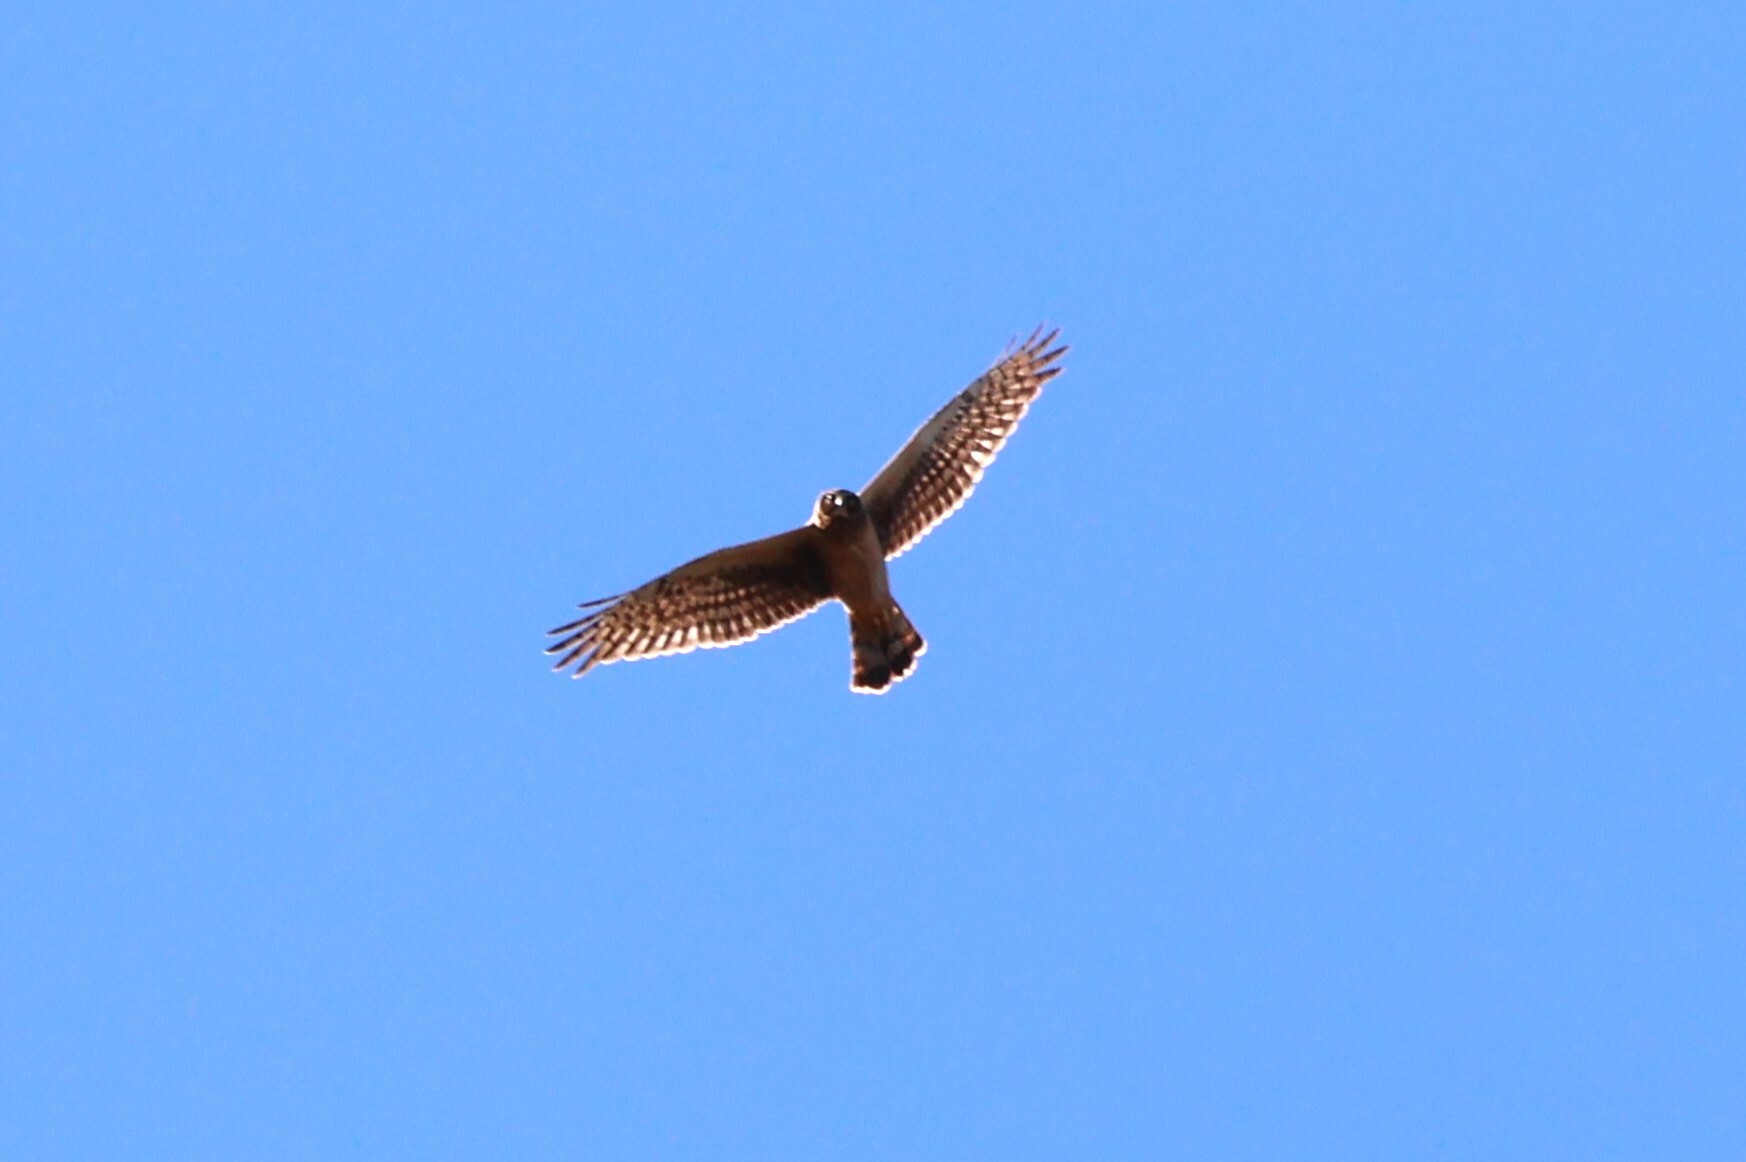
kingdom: Animalia
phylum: Chordata
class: Aves
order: Accipitriformes
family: Accipitridae
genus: Circus
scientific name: Circus cyaneus
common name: Hen harrier
